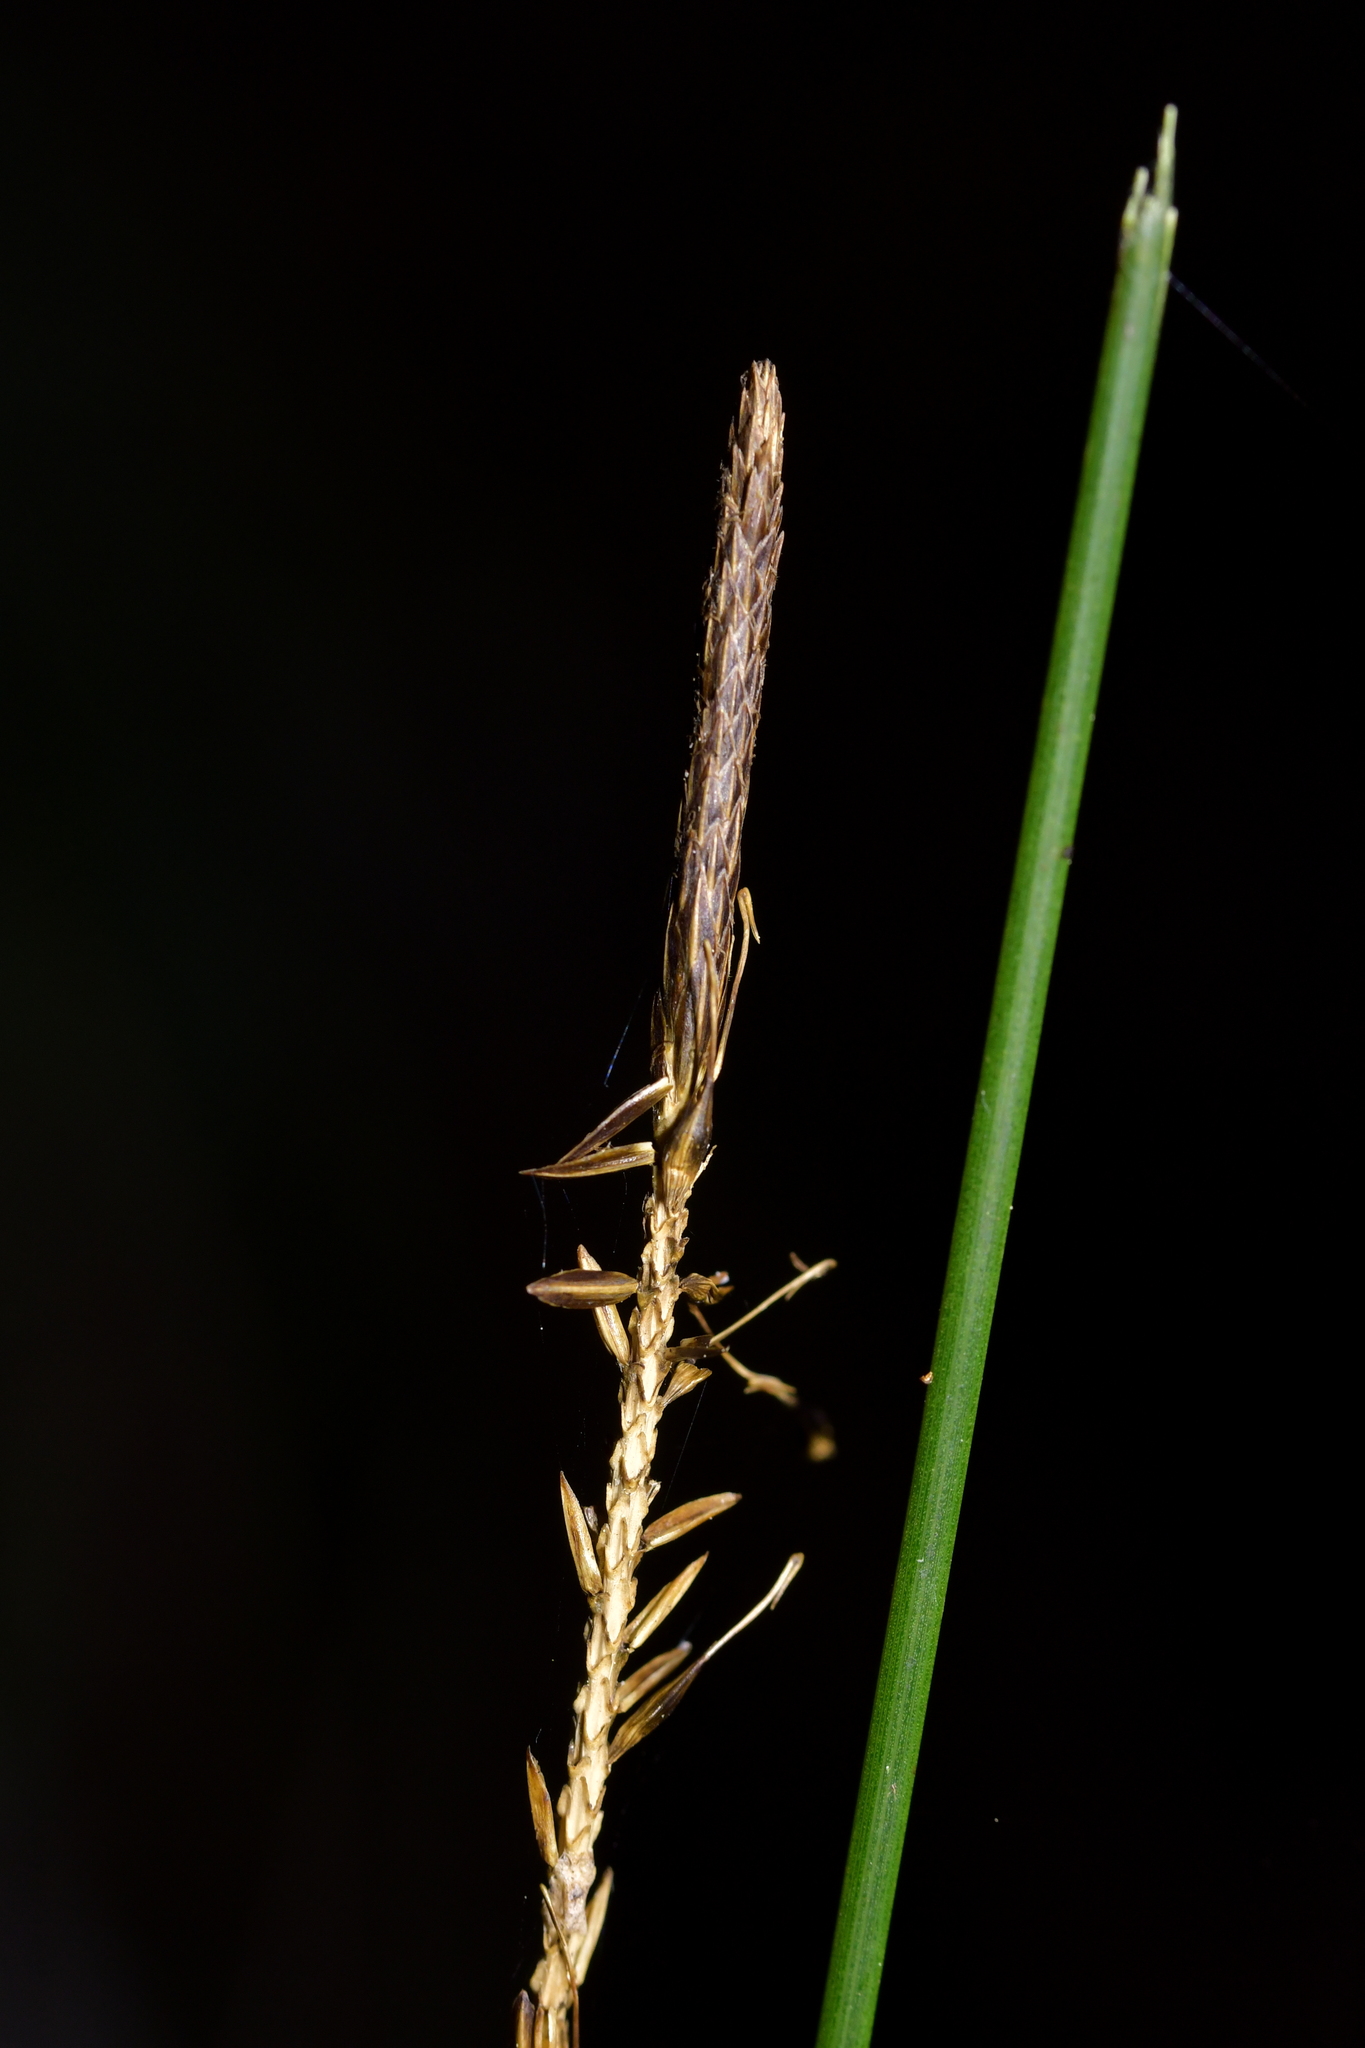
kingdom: Plantae
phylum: Tracheophyta
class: Liliopsida
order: Poales
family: Cyperaceae
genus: Carex
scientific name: Carex uncinata
